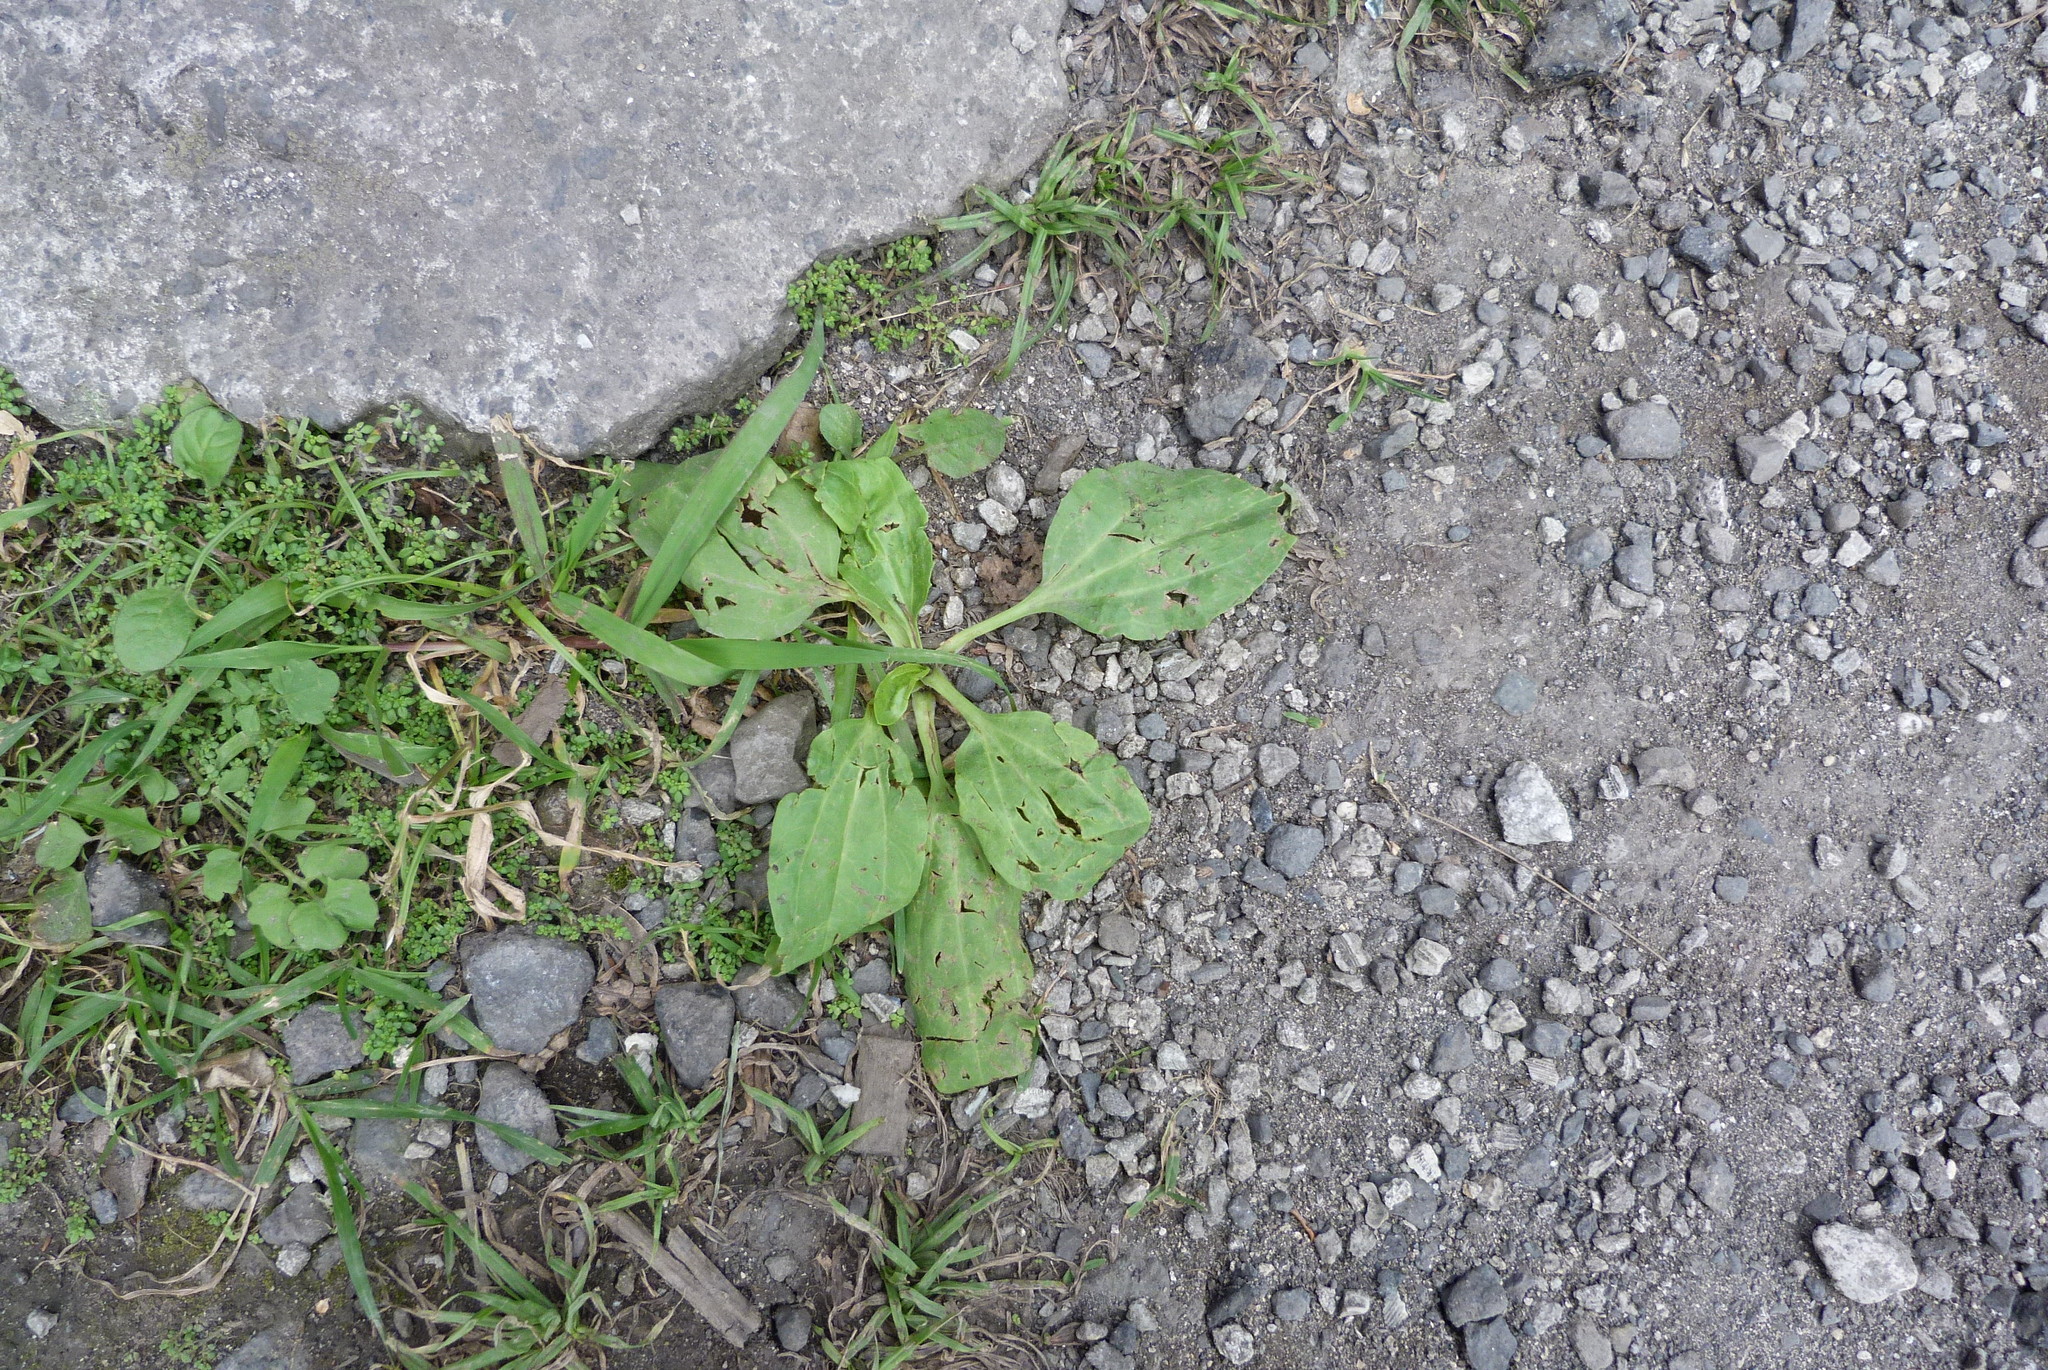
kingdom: Plantae
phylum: Tracheophyta
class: Magnoliopsida
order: Lamiales
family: Plantaginaceae
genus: Plantago
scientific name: Plantago major
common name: Common plantain
